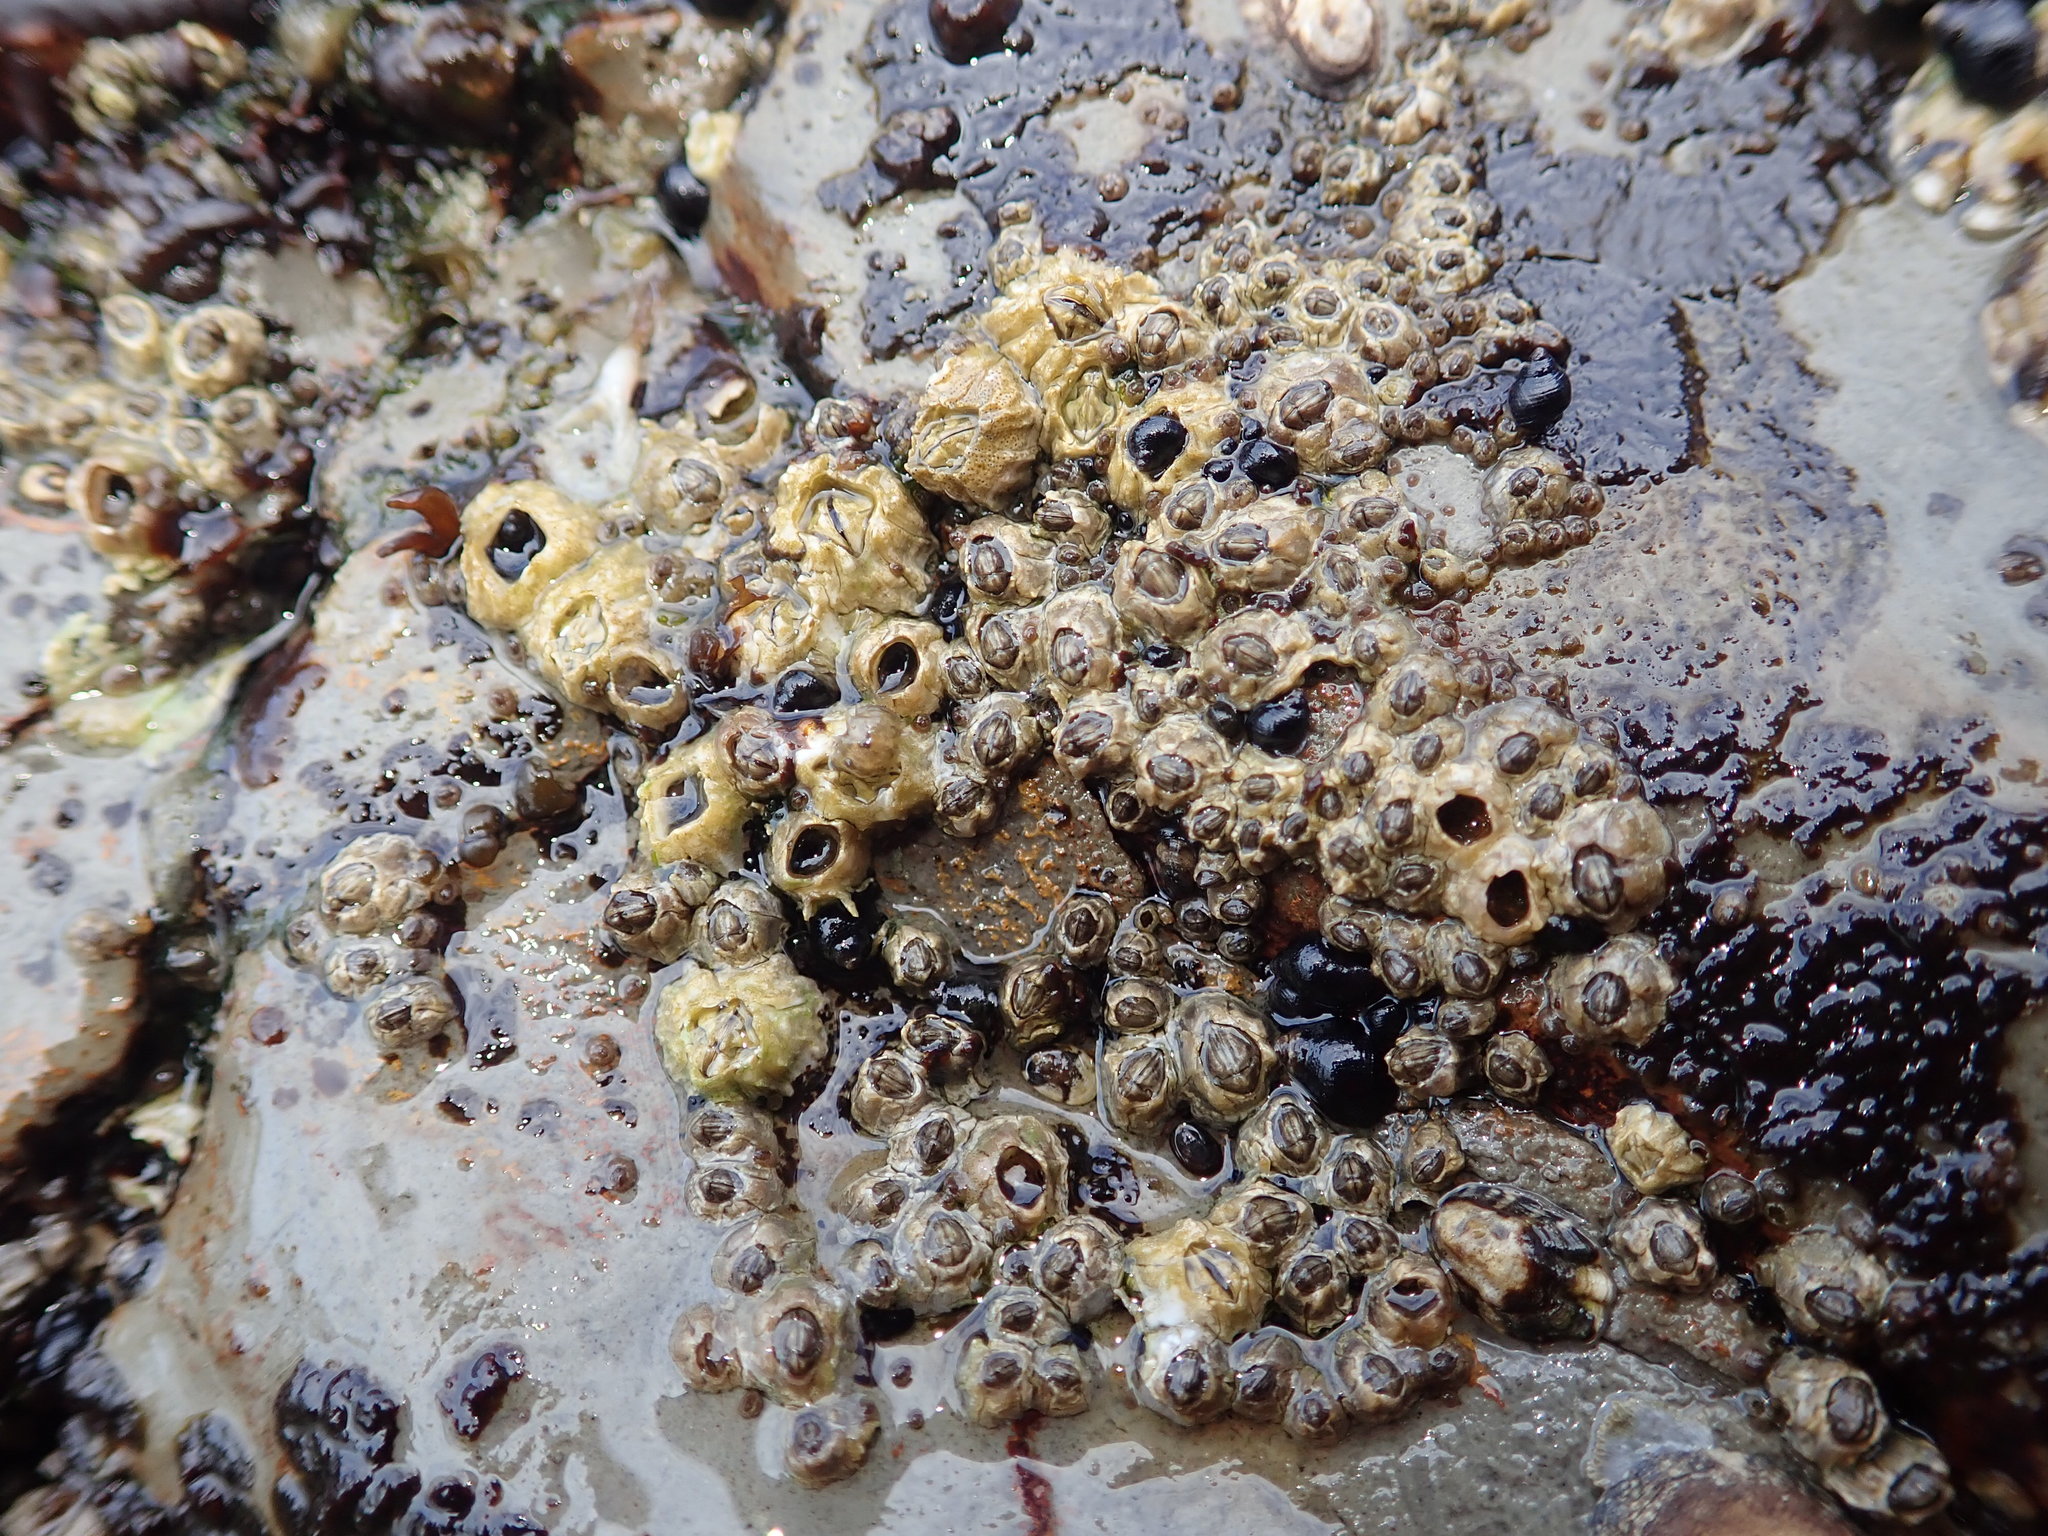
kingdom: Animalia
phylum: Arthropoda
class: Maxillopoda
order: Sessilia
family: Balanidae
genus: Balanus
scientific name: Balanus glandula
